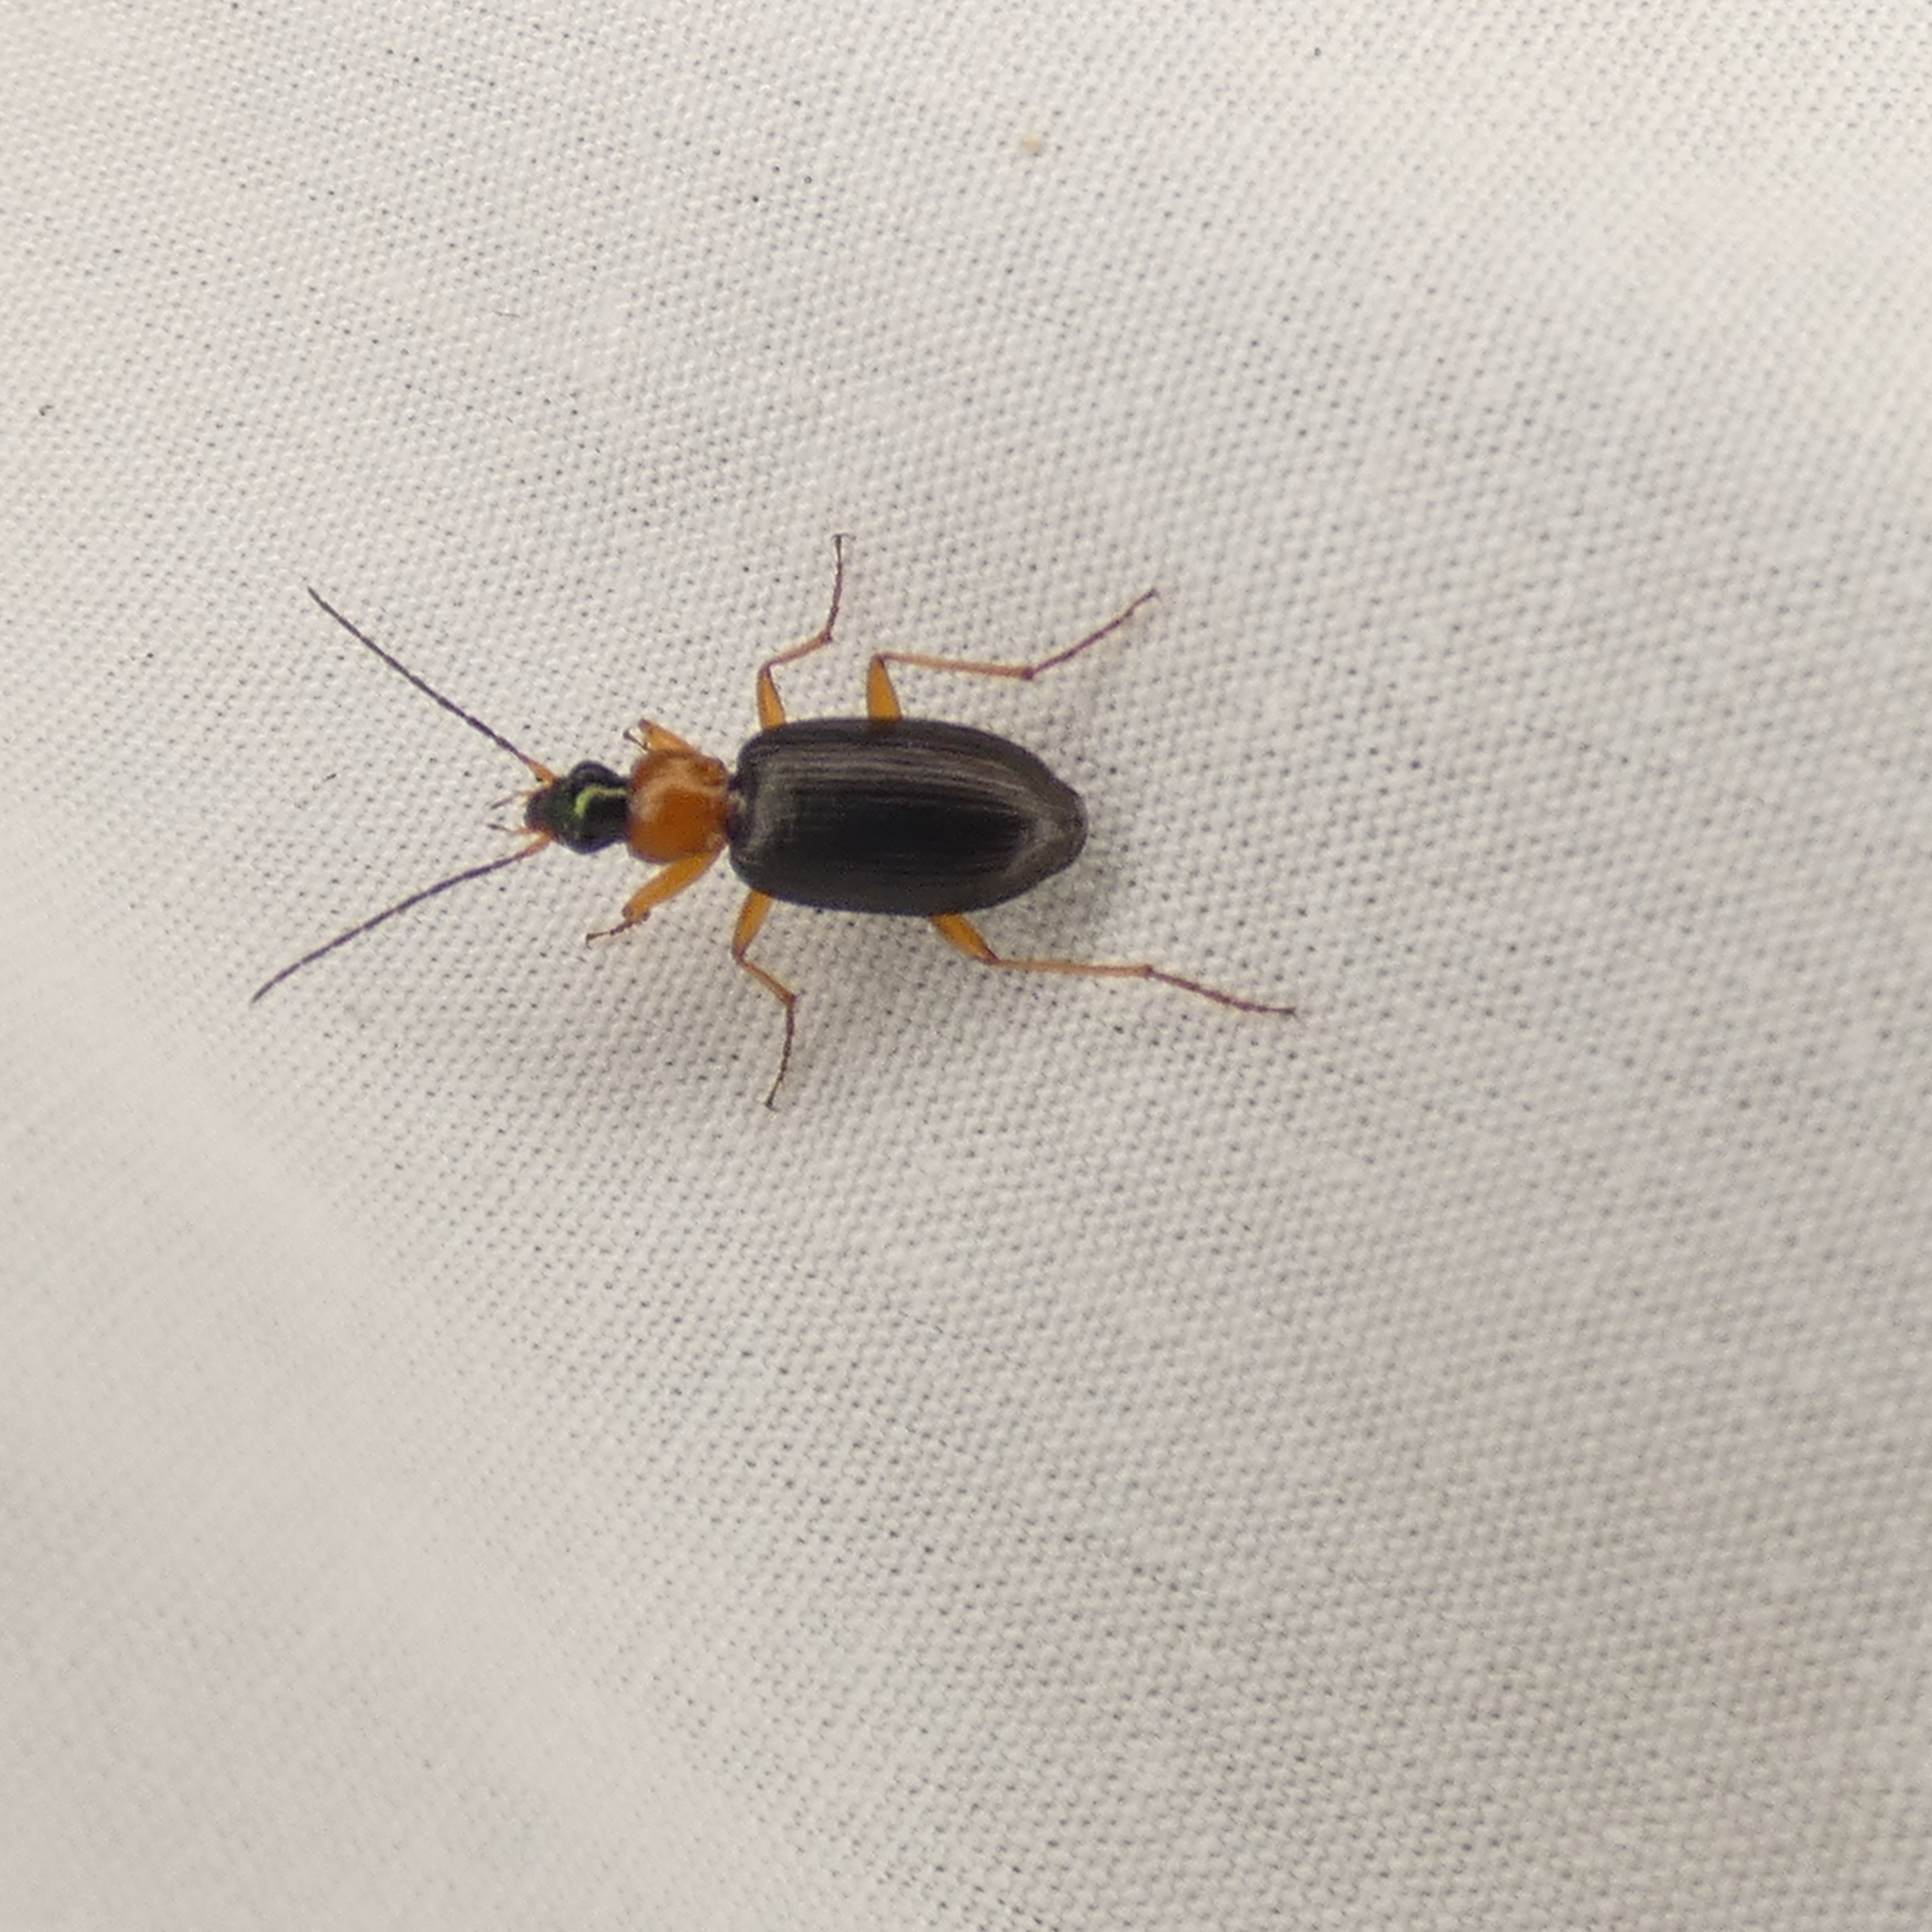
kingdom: Animalia
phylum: Arthropoda
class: Insecta
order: Coleoptera
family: Carabidae
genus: Agonum
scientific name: Agonum decorum
